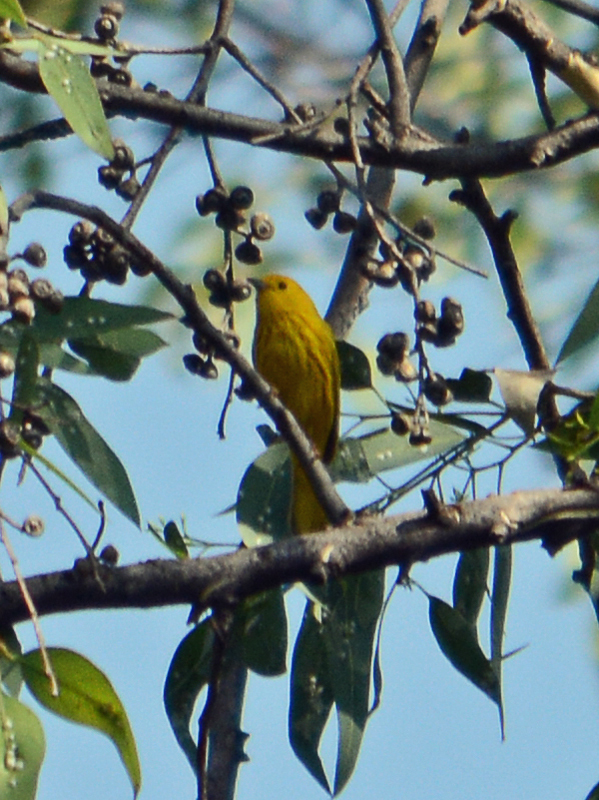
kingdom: Animalia
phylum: Chordata
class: Aves
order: Passeriformes
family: Parulidae
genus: Setophaga
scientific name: Setophaga petechia
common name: Yellow warbler
